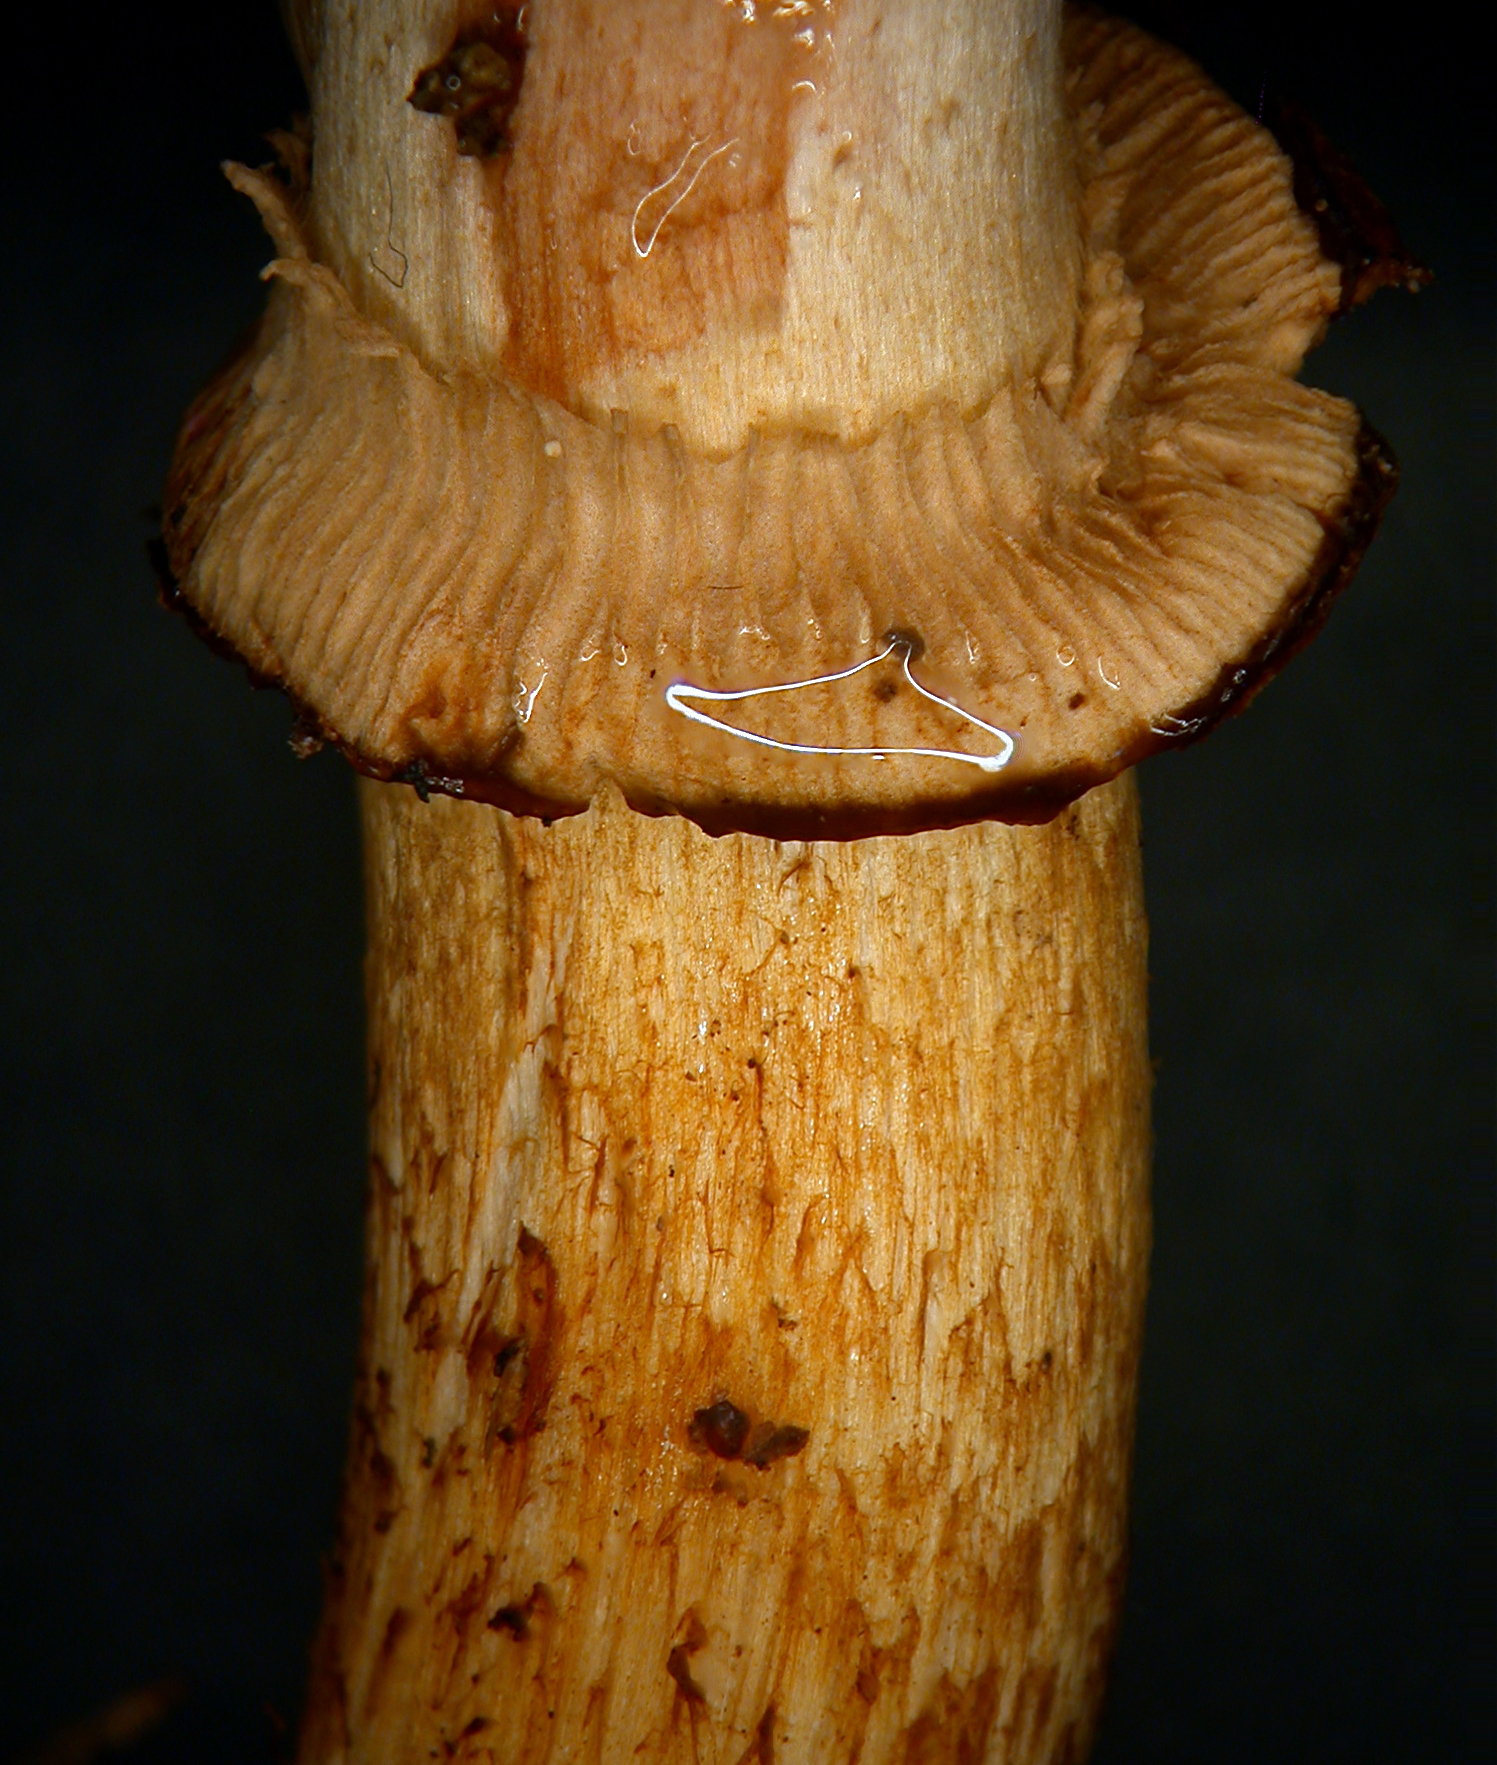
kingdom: Fungi
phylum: Basidiomycota
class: Agaricomycetes
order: Agaricales
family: Cortinariaceae
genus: Cortinarius
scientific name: Cortinarius majestaticus
